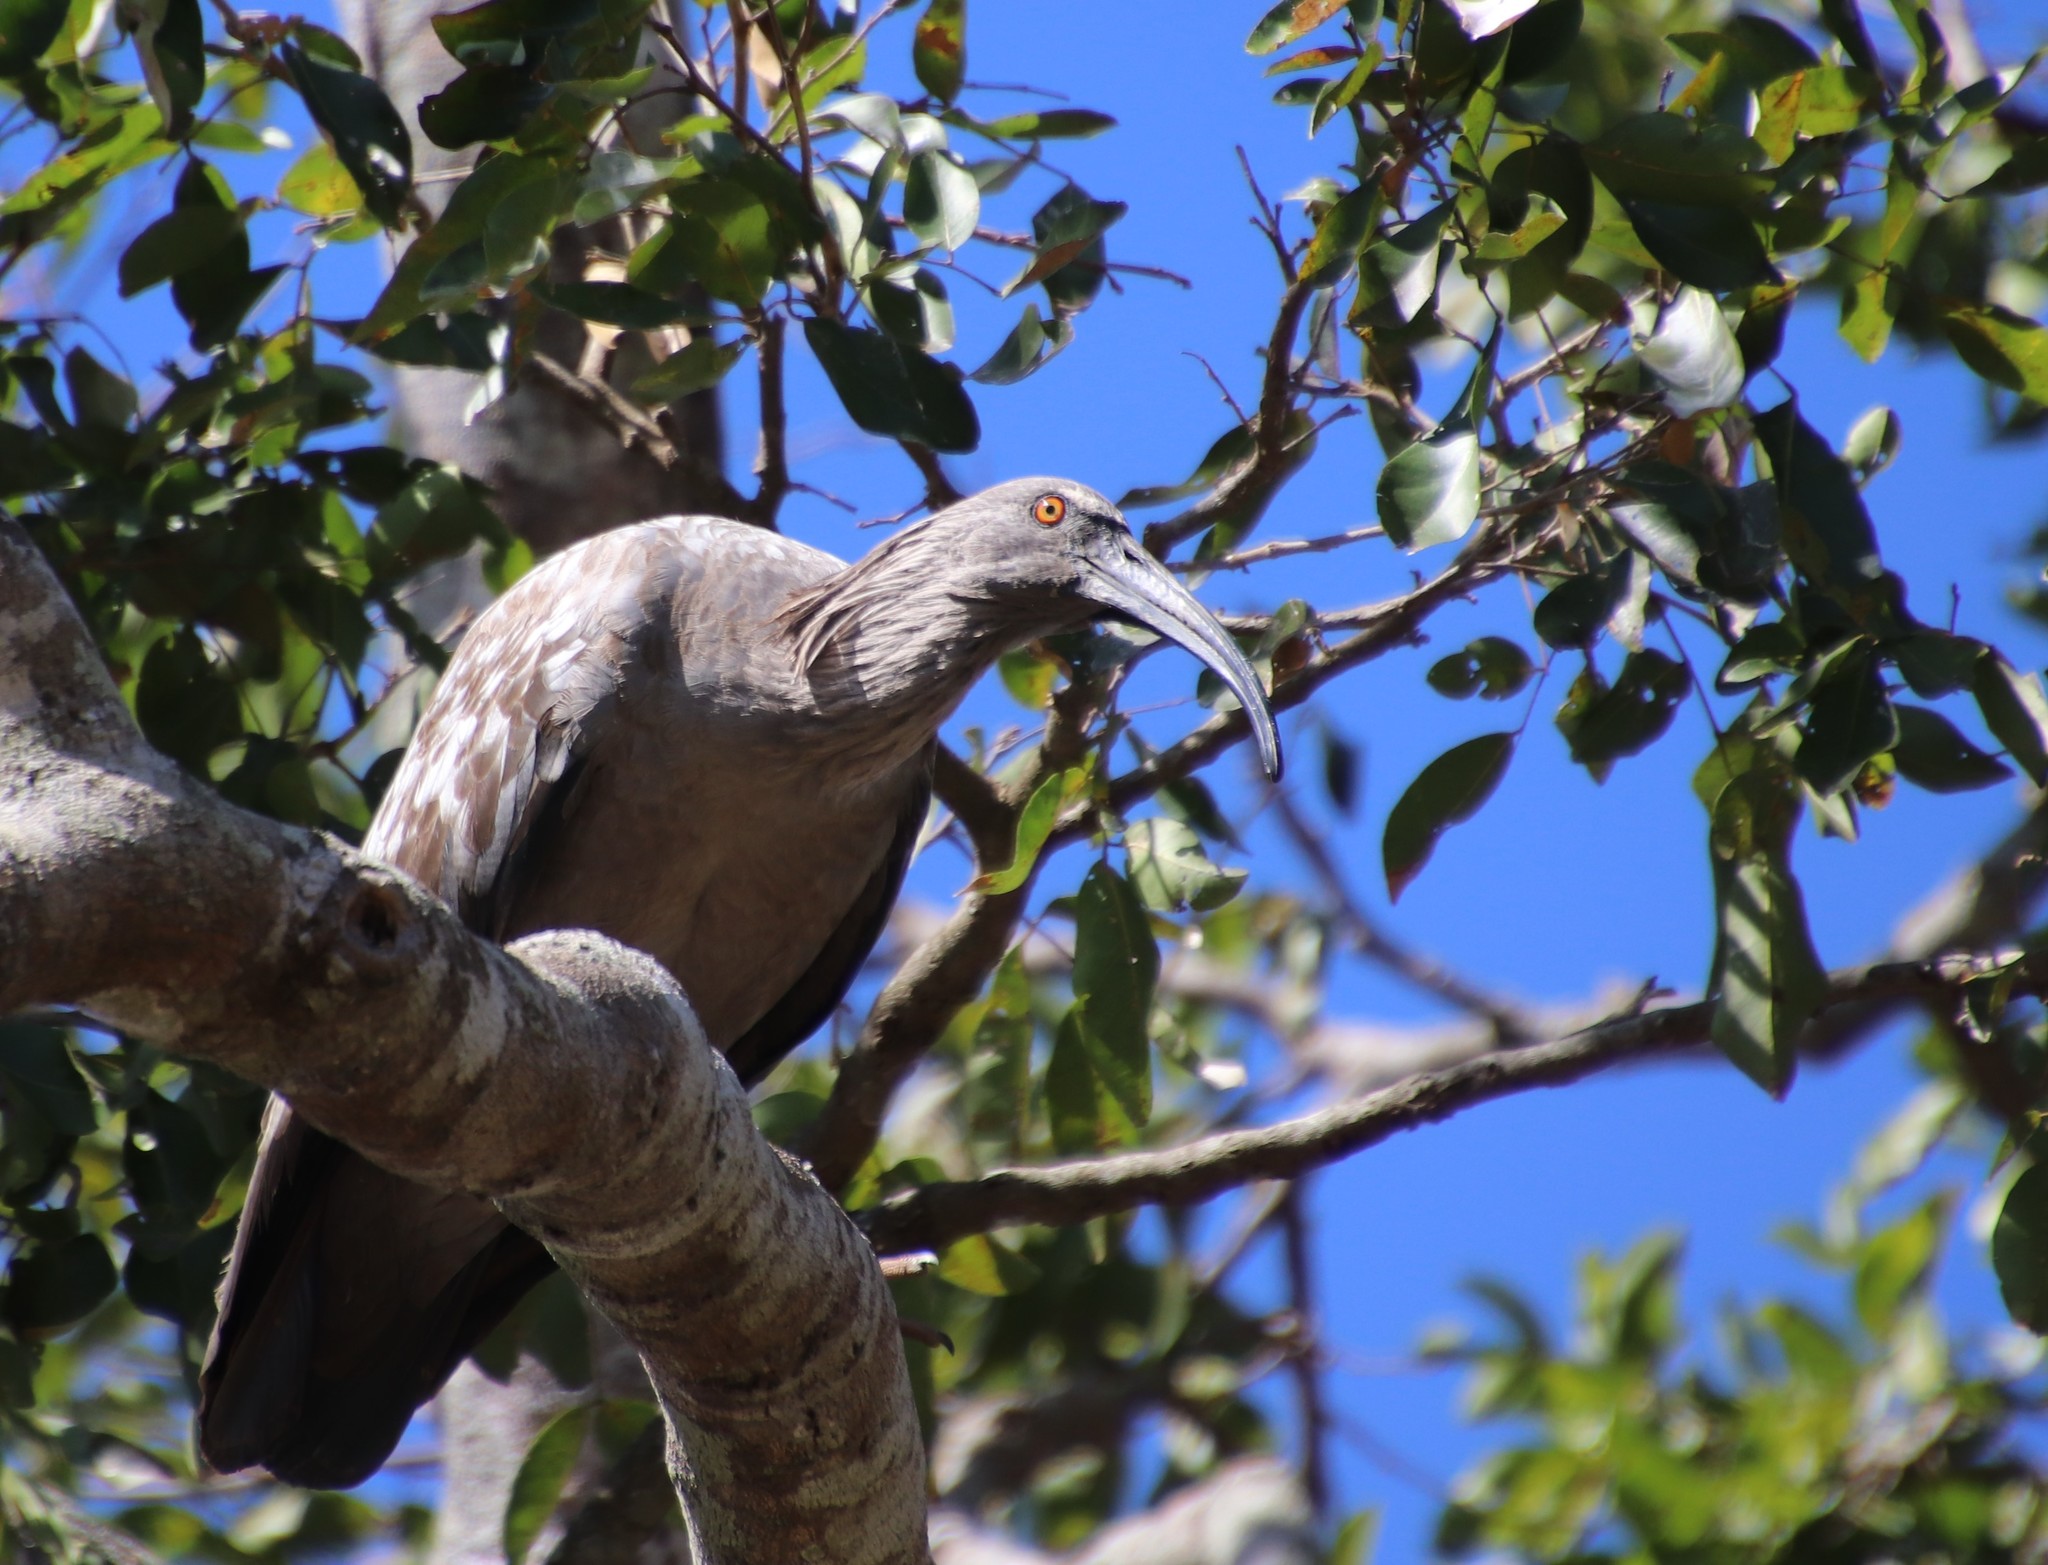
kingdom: Animalia
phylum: Chordata
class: Aves
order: Pelecaniformes
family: Threskiornithidae
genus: Theristicus
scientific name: Theristicus caerulescens
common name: Plumbeous ibis
